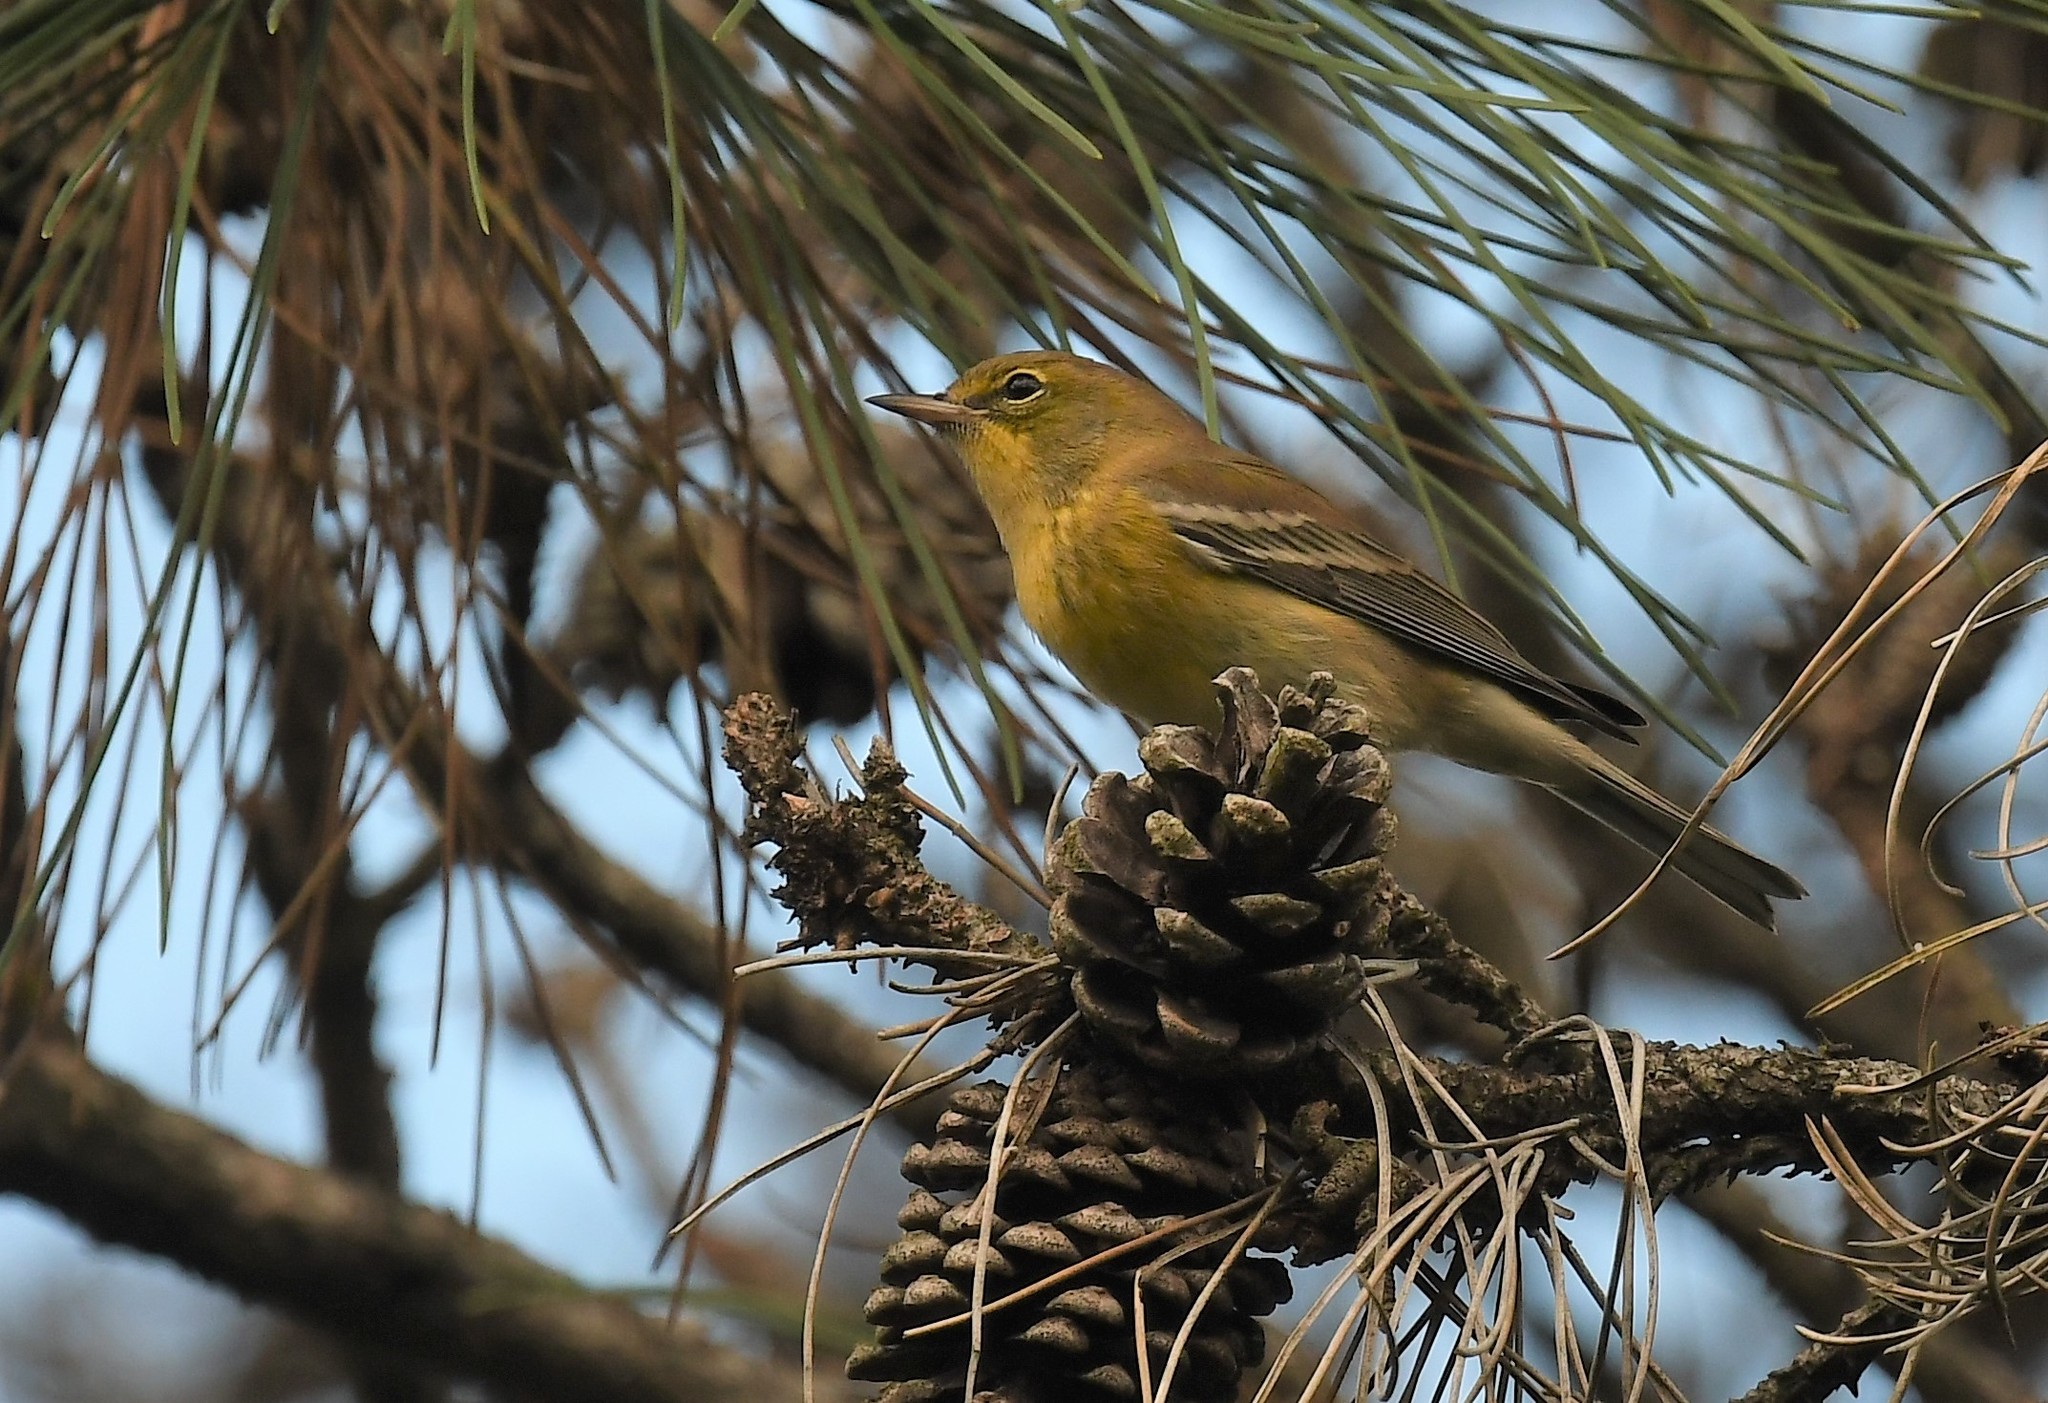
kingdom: Animalia
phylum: Chordata
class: Aves
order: Passeriformes
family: Parulidae
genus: Setophaga
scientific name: Setophaga pinus
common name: Pine warbler
